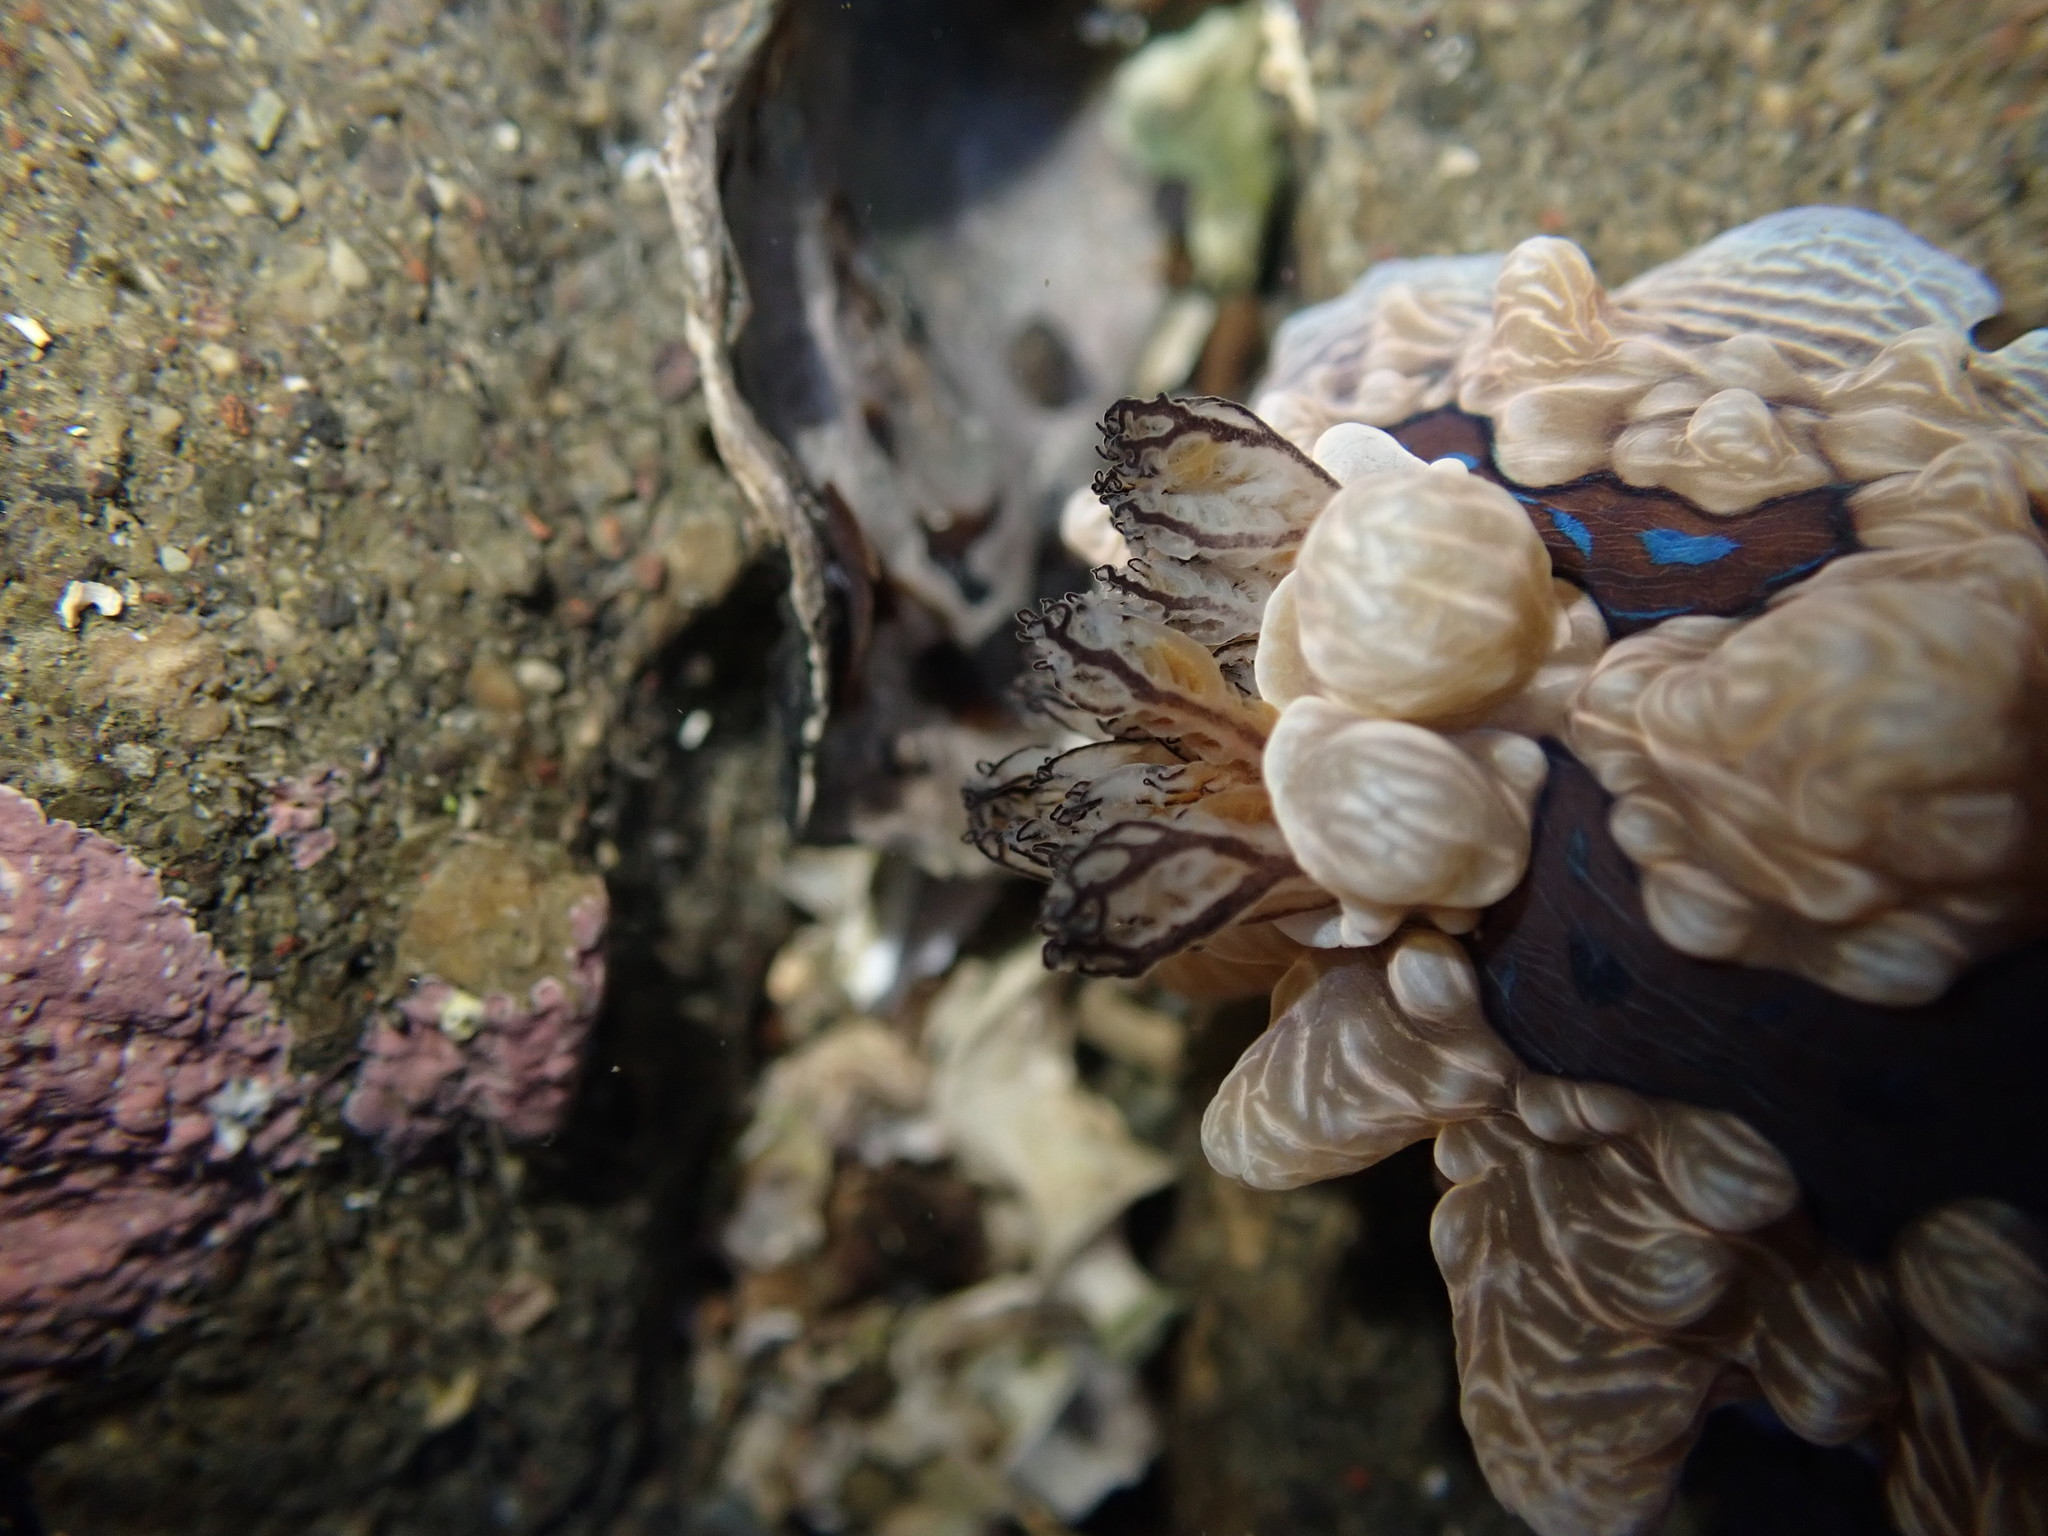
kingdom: Animalia
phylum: Mollusca
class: Gastropoda
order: Nudibranchia
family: Dendrodorididae
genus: Dendrodoris
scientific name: Dendrodoris krusensternii
